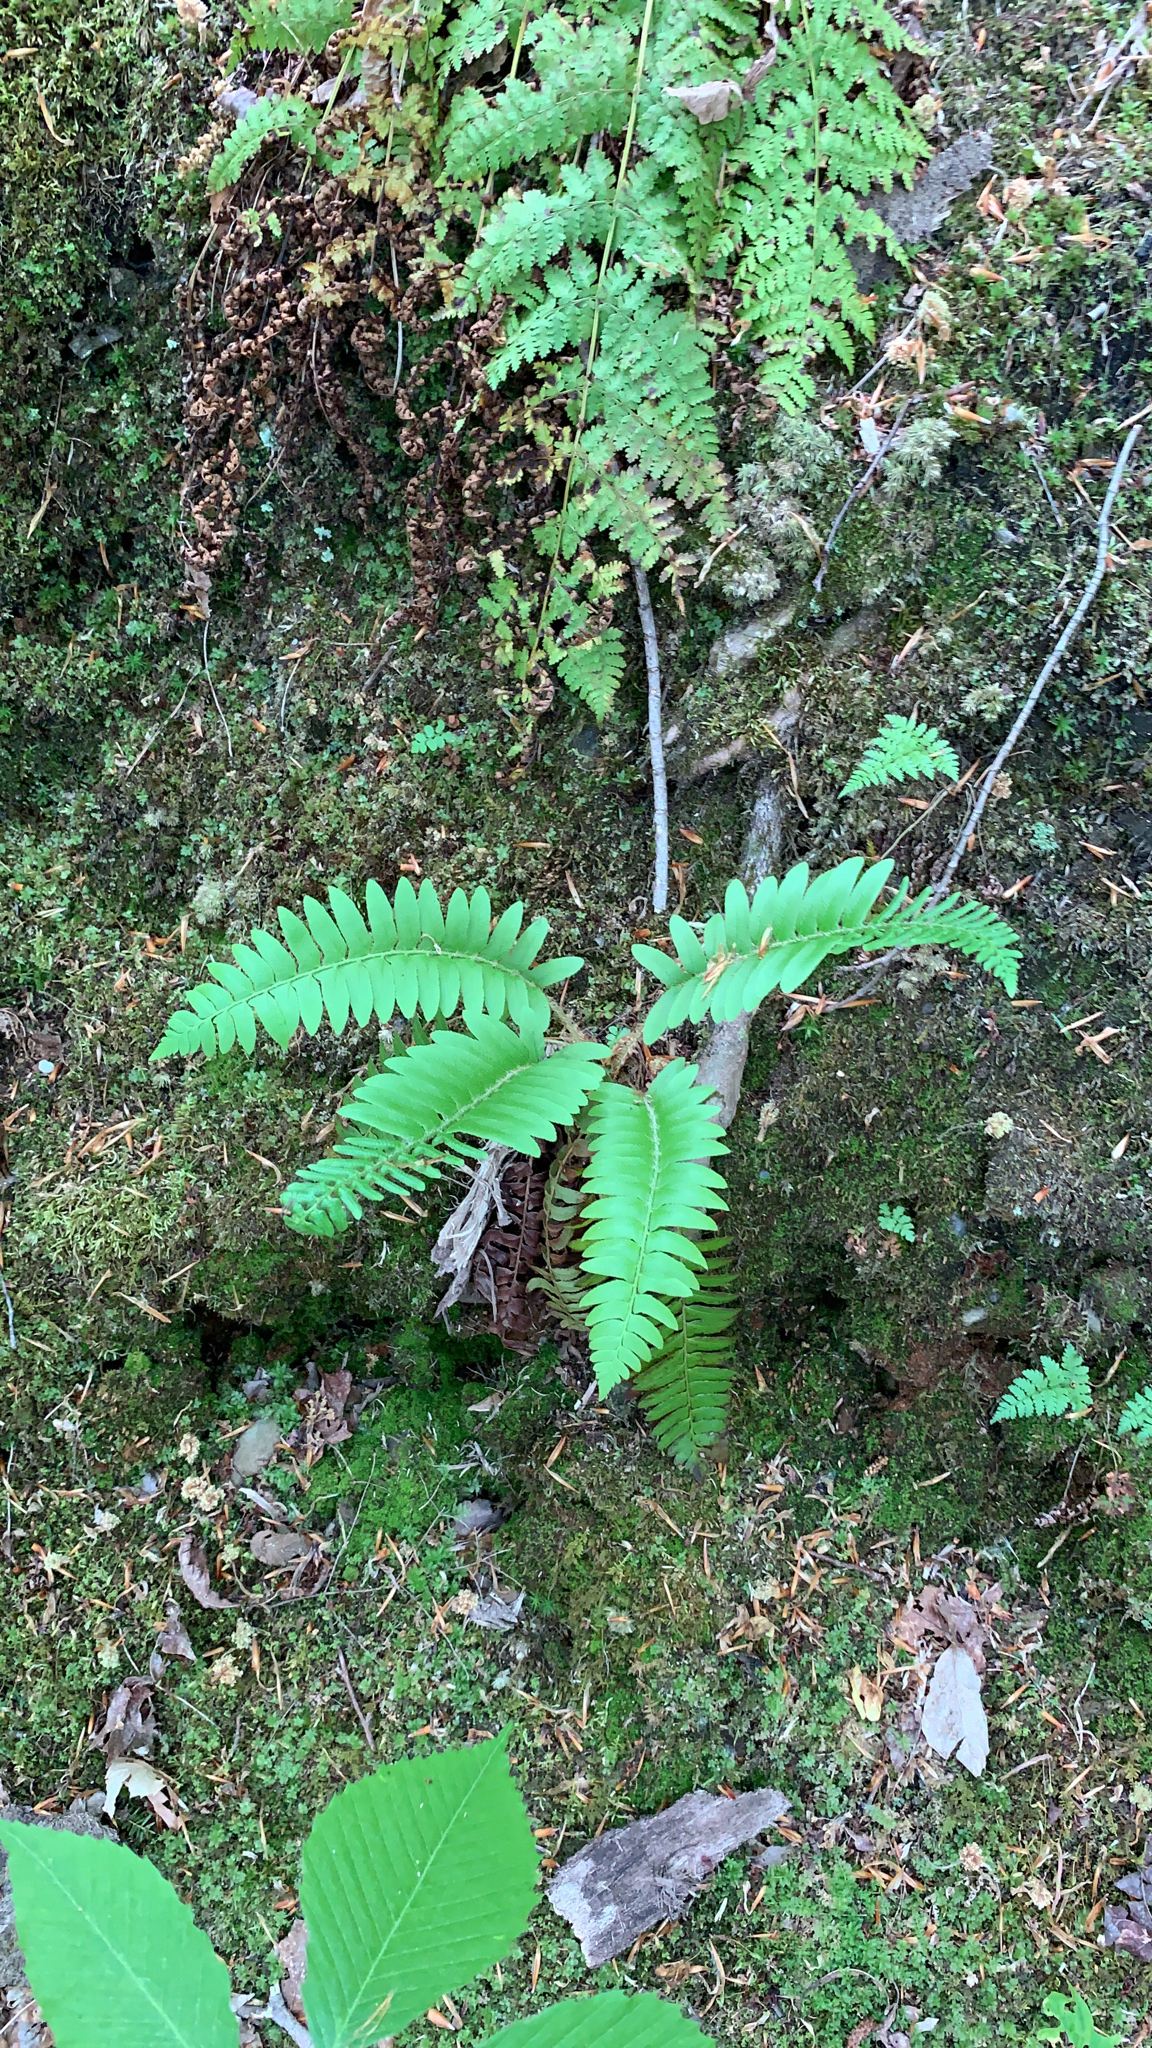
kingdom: Plantae
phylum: Tracheophyta
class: Polypodiopsida
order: Polypodiales
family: Dryopteridaceae
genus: Polystichum
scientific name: Polystichum acrostichoides
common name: Christmas fern
